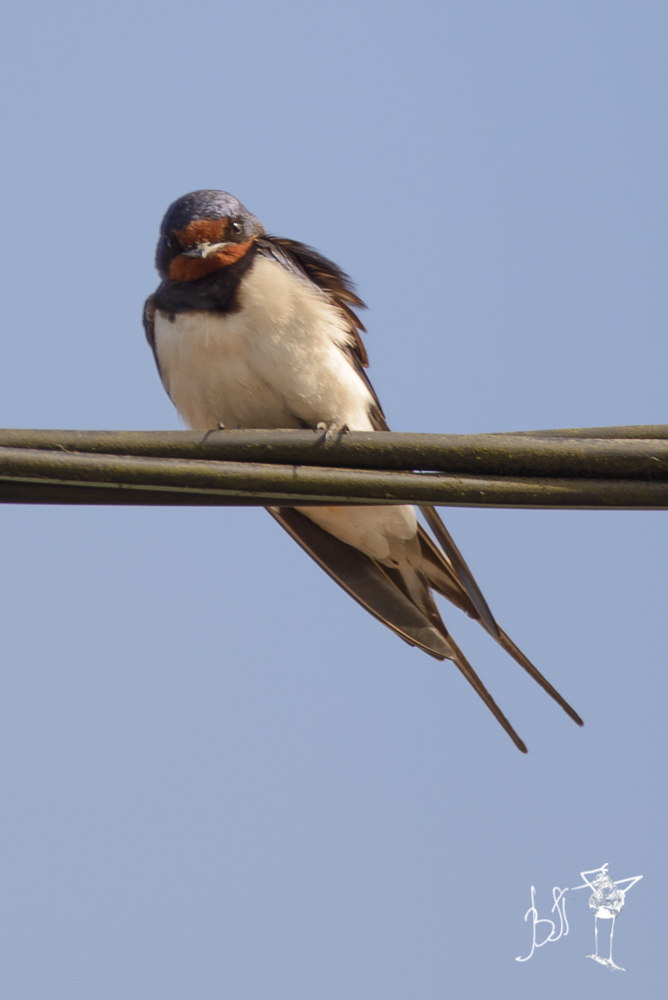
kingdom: Animalia
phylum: Chordata
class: Aves
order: Passeriformes
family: Hirundinidae
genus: Hirundo
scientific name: Hirundo rustica
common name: Barn swallow
